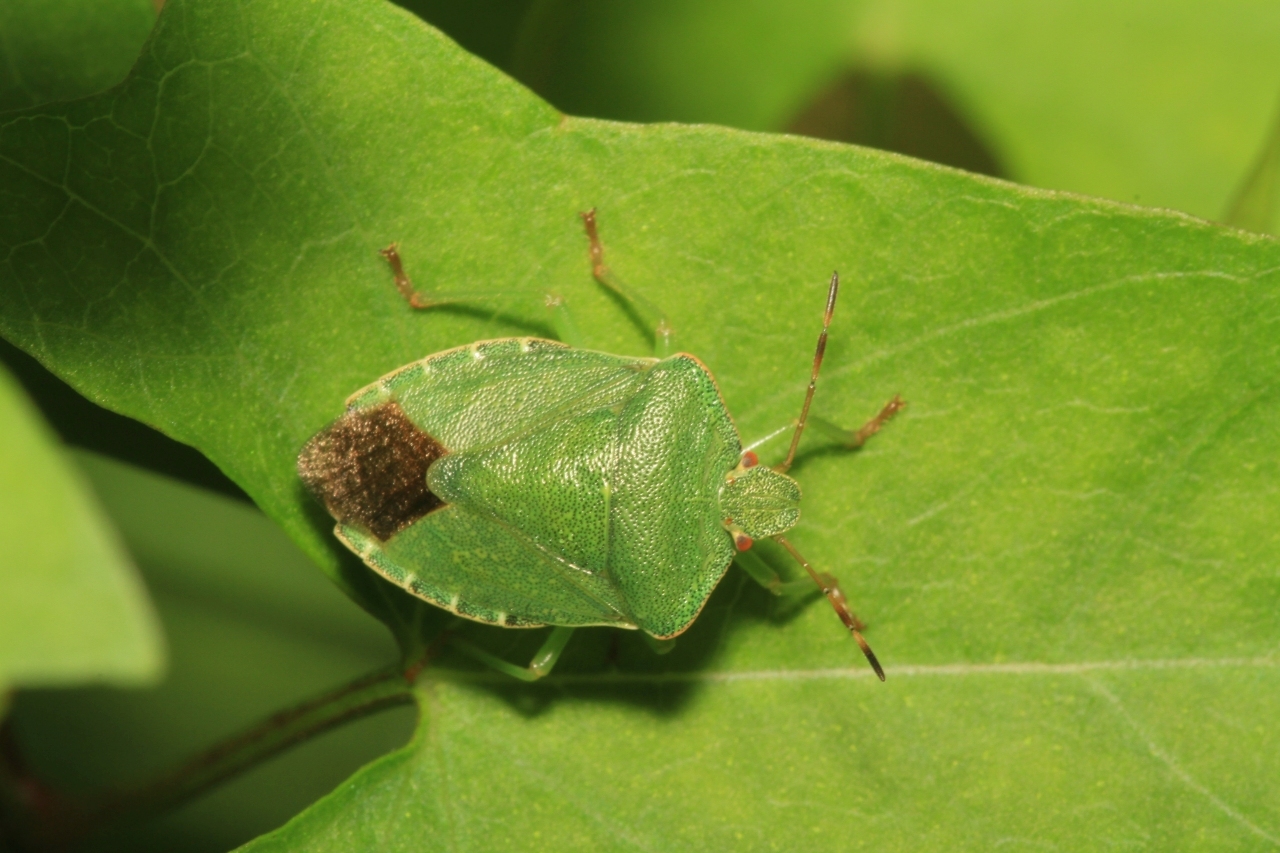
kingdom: Animalia
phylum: Arthropoda
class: Insecta
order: Hemiptera
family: Pentatomidae
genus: Palomena
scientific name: Palomena prasina
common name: Green shieldbug
